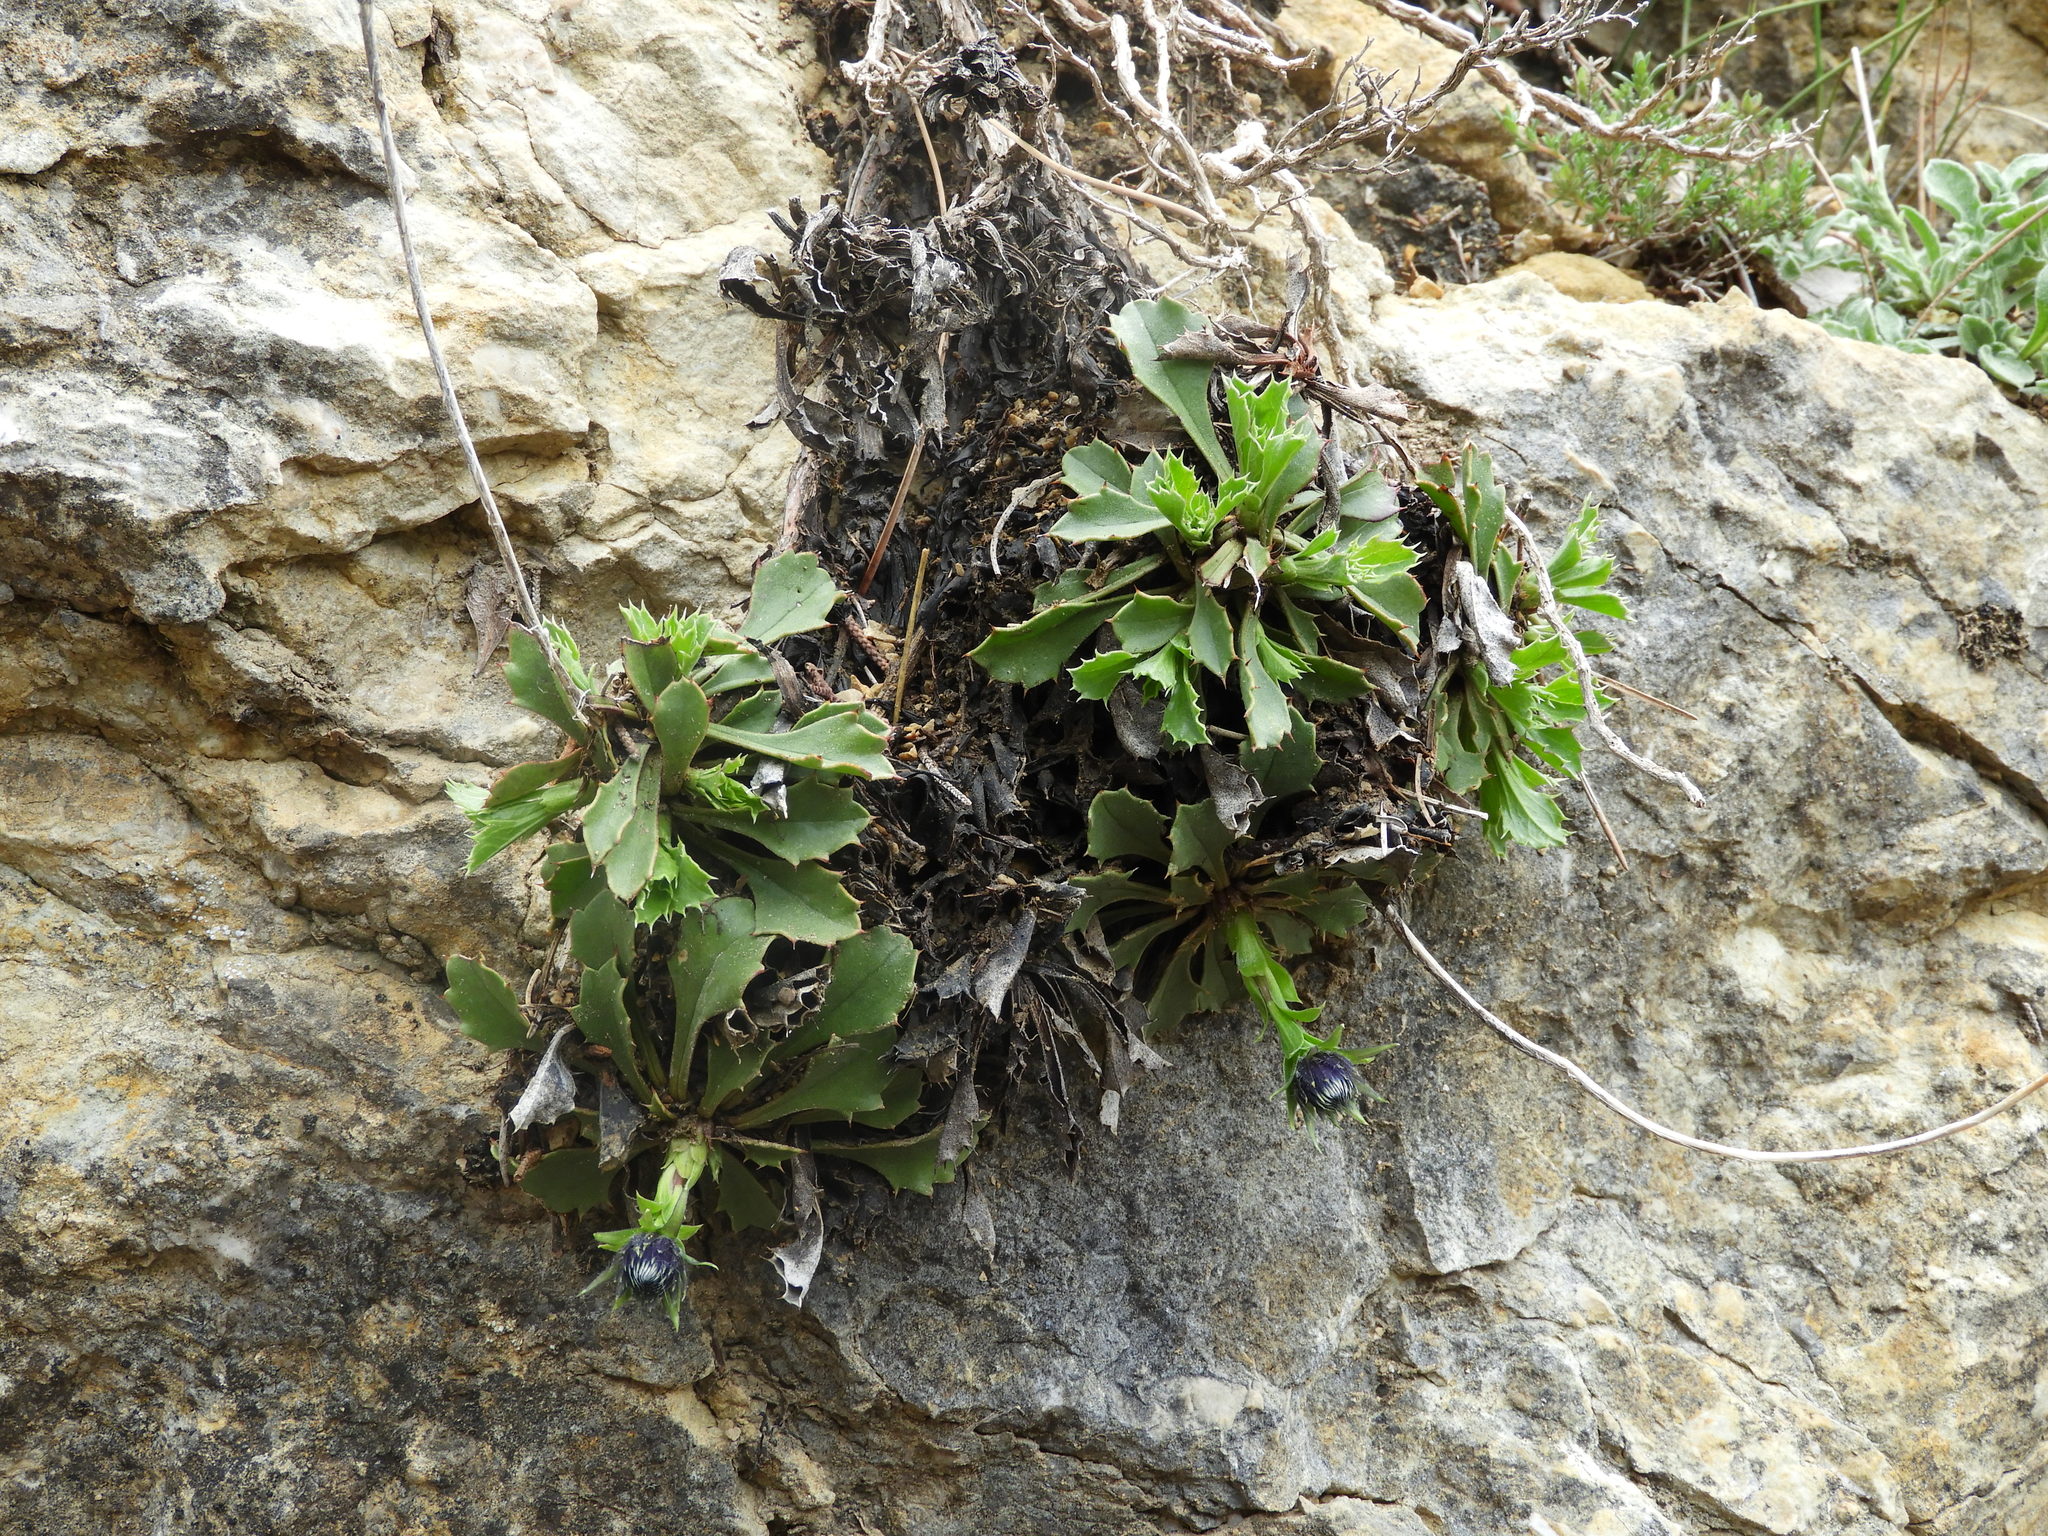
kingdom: Plantae
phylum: Tracheophyta
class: Magnoliopsida
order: Lamiales
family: Plantaginaceae
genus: Globularia
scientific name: Globularia spinosa
